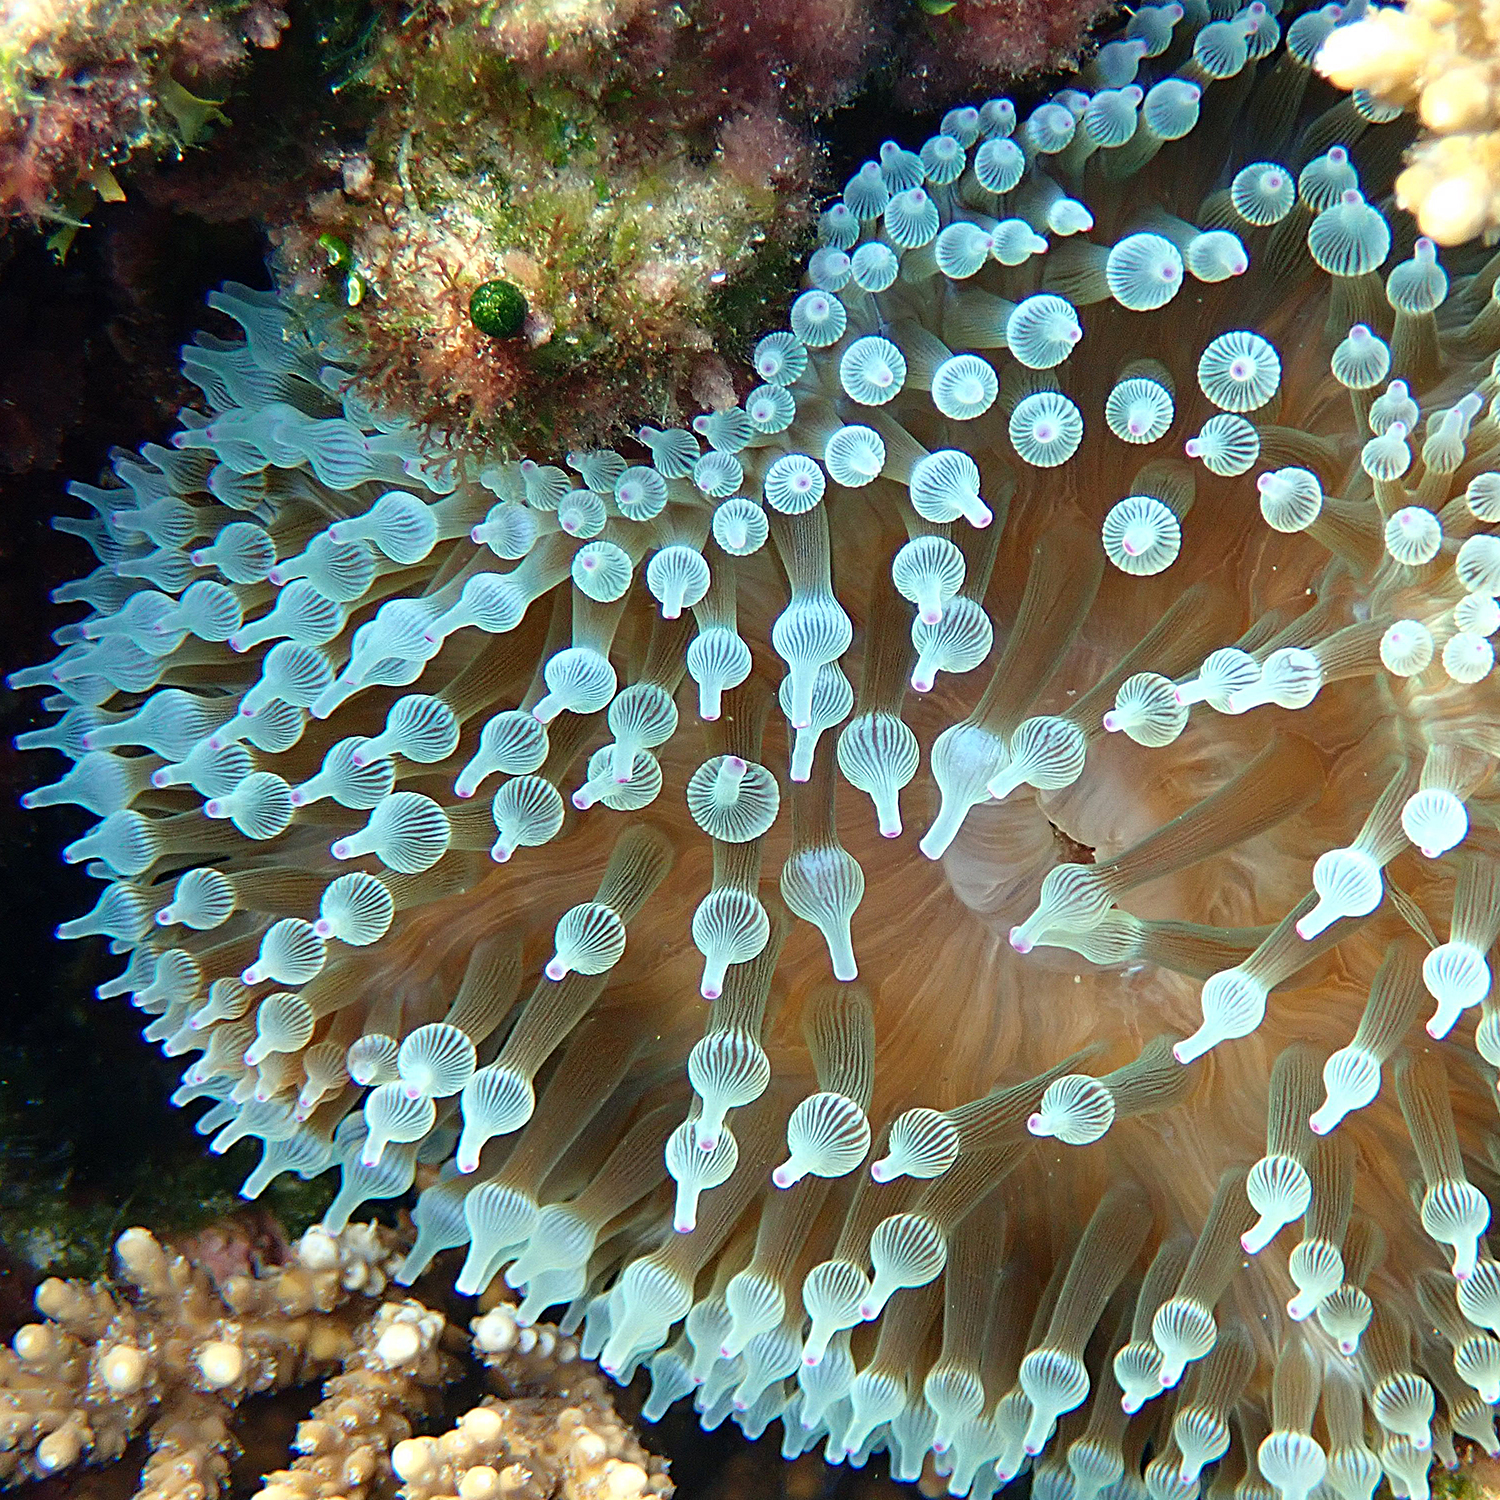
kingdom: Animalia
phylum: Cnidaria
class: Anthozoa
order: Actiniaria
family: Actiniidae
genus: Entacmaea
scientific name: Entacmaea quadricolor
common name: Bulb tentacle sea anemone
